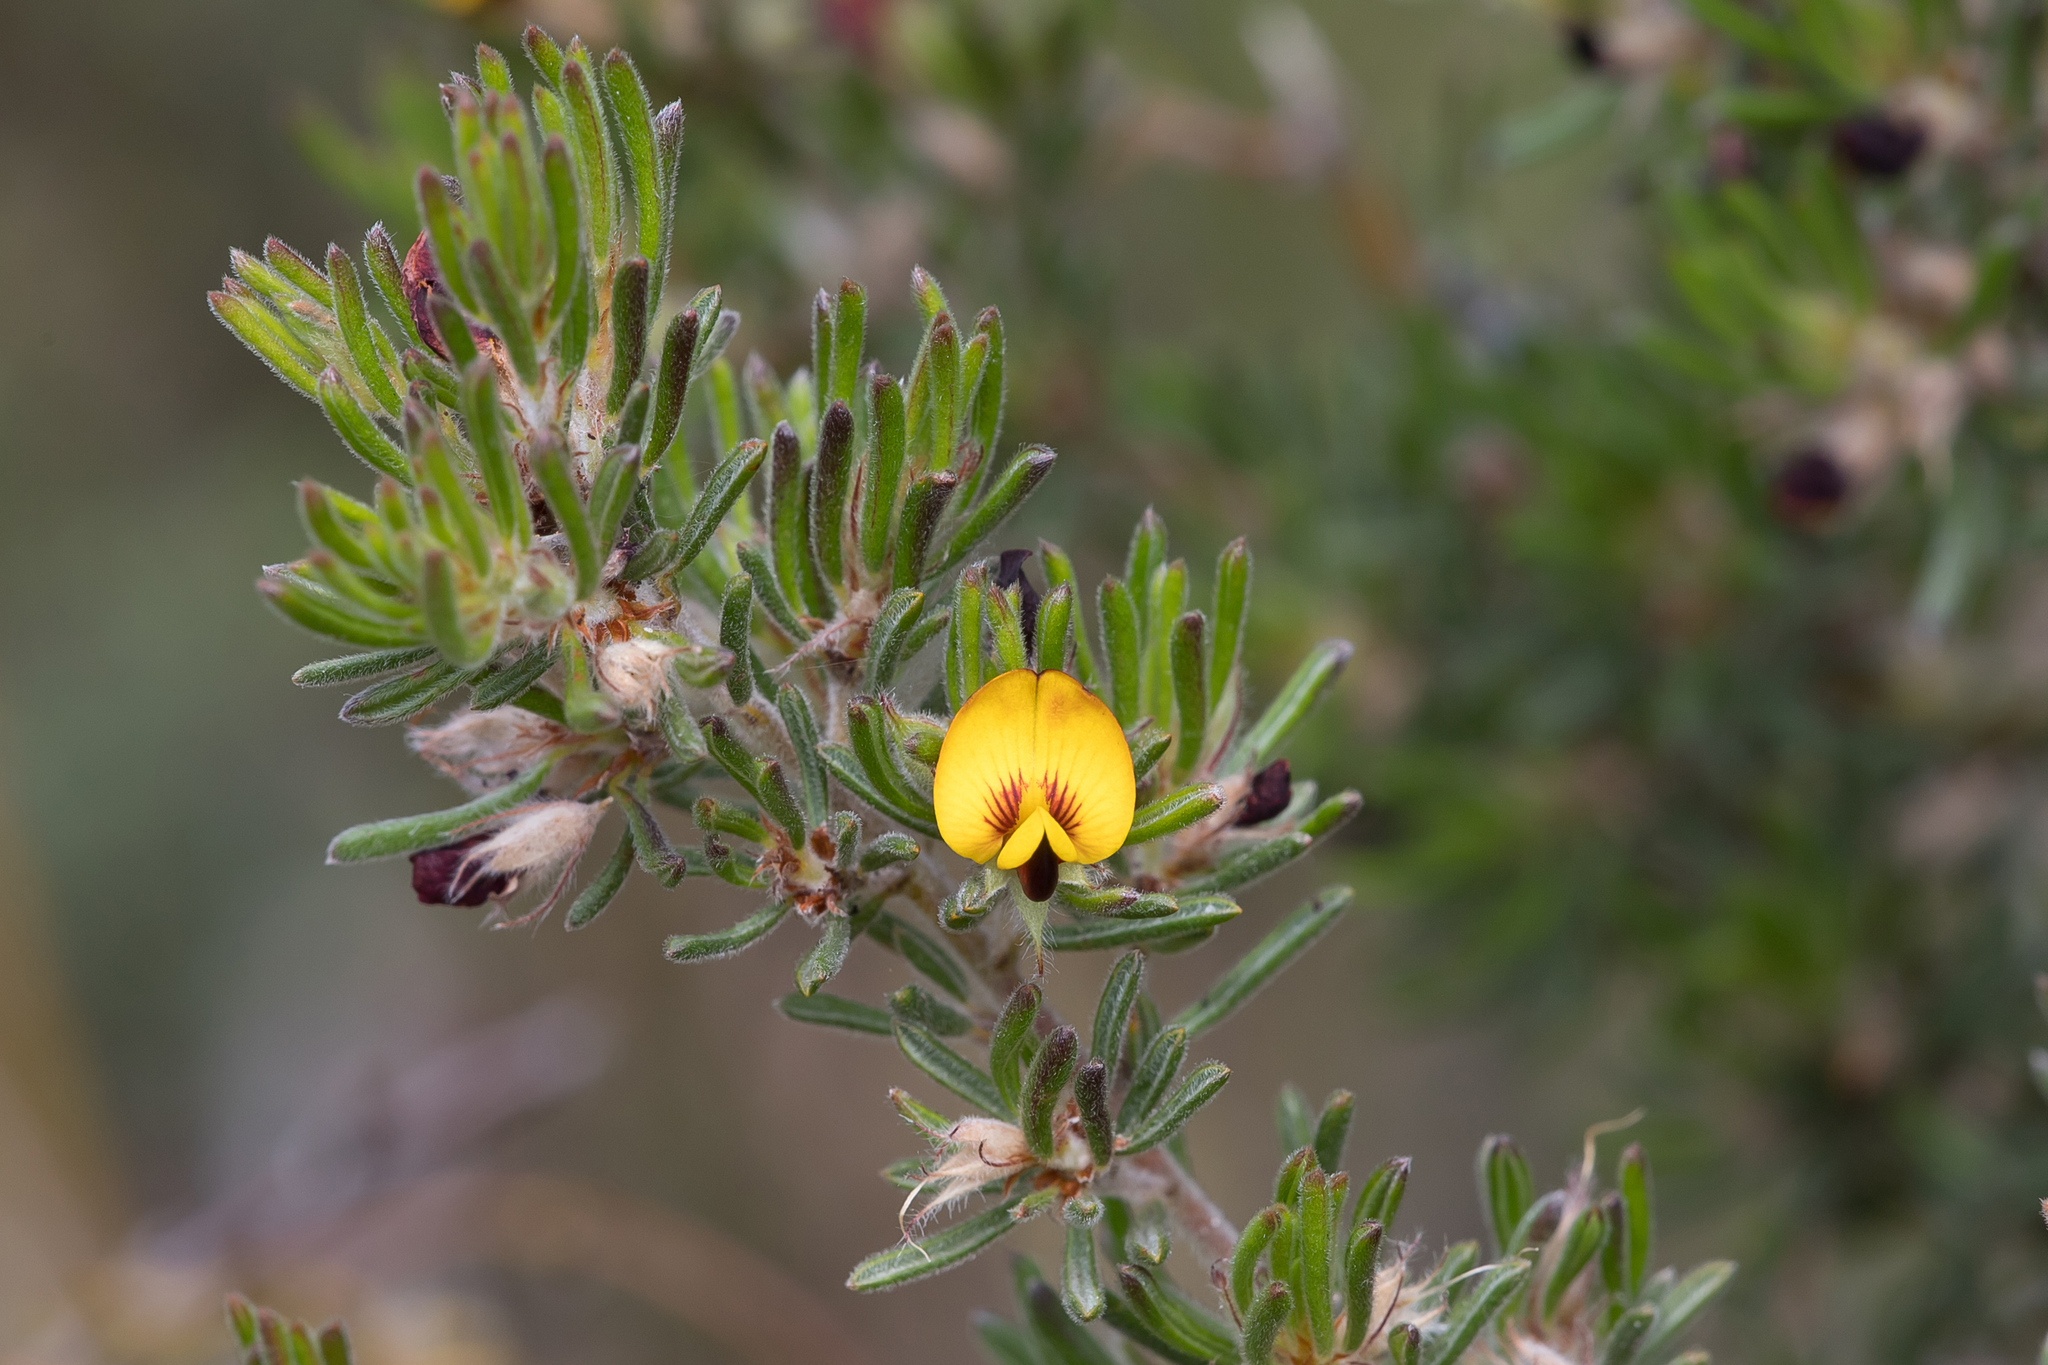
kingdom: Plantae
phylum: Tracheophyta
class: Magnoliopsida
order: Fabales
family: Fabaceae
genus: Pultenaea
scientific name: Pultenaea canaliculata
